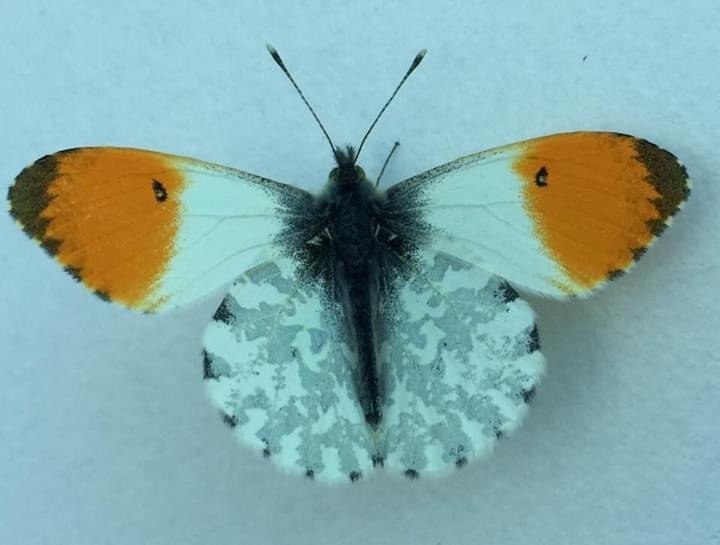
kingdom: Animalia
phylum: Arthropoda
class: Insecta
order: Lepidoptera
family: Pieridae
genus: Anthocharis
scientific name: Anthocharis cardamines
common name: Orange-tip
